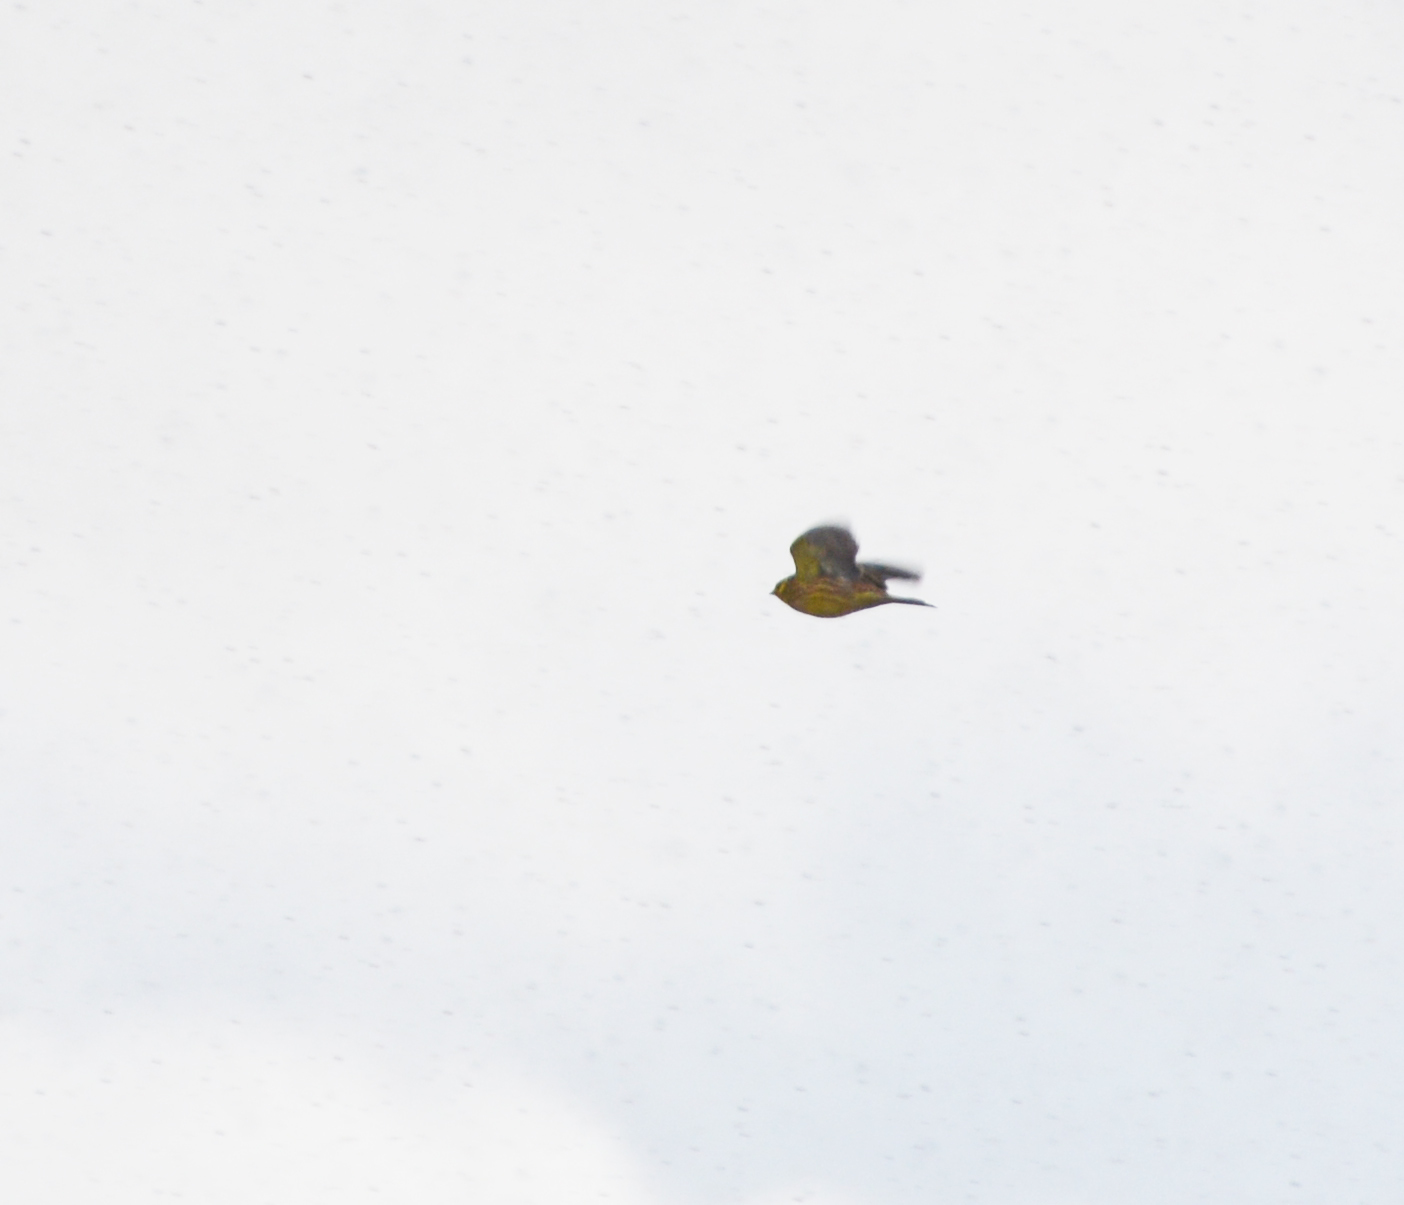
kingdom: Animalia
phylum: Chordata
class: Aves
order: Passeriformes
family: Emberizidae
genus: Emberiza
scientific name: Emberiza citrinella
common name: Yellowhammer
